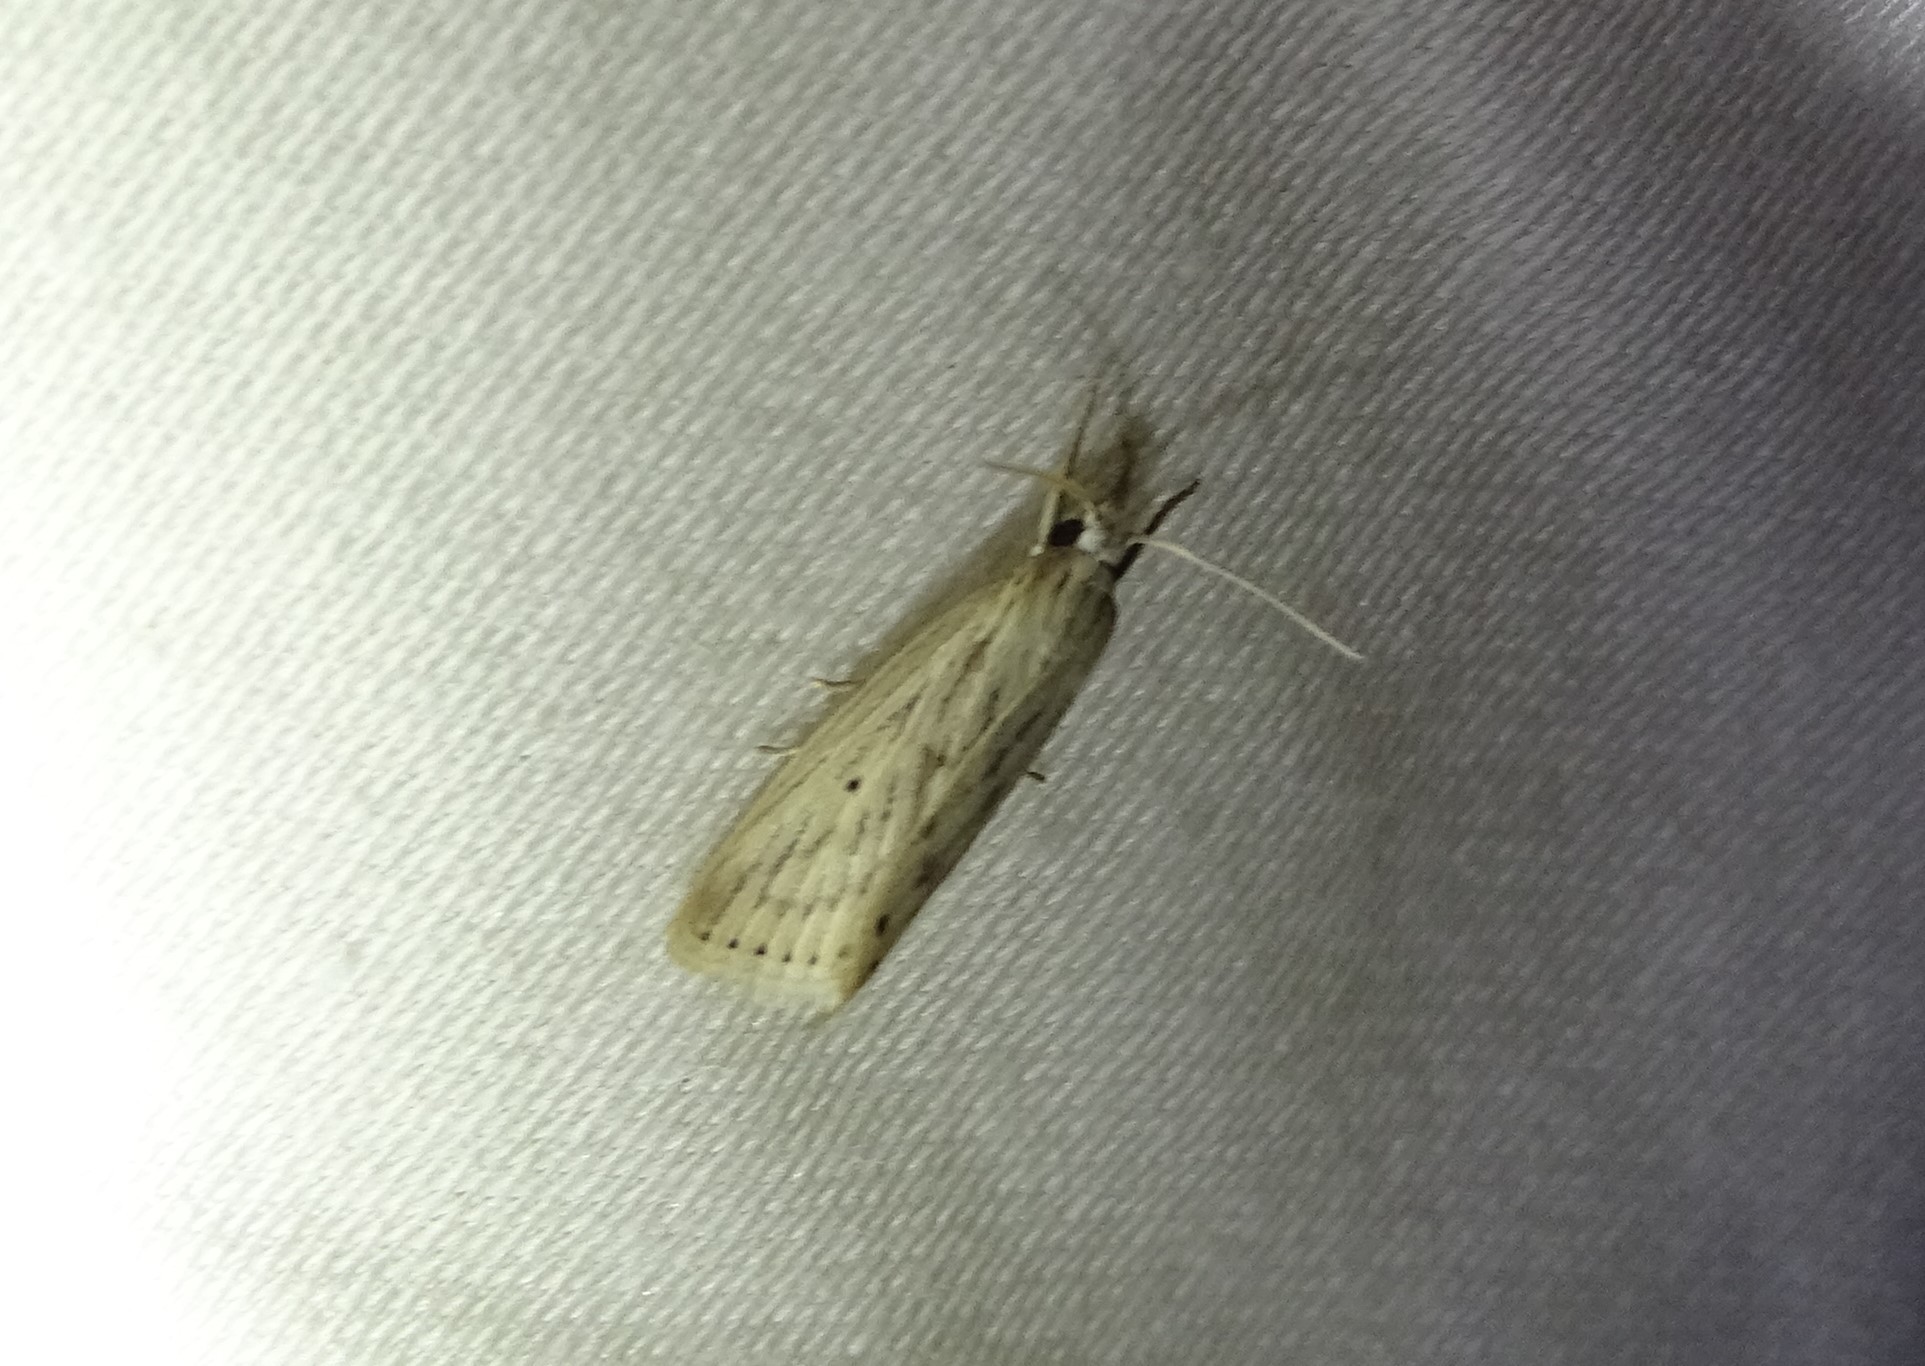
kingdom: Animalia
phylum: Arthropoda
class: Insecta
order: Lepidoptera
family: Crambidae
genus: Diatraea
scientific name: Diatraea lisetta
